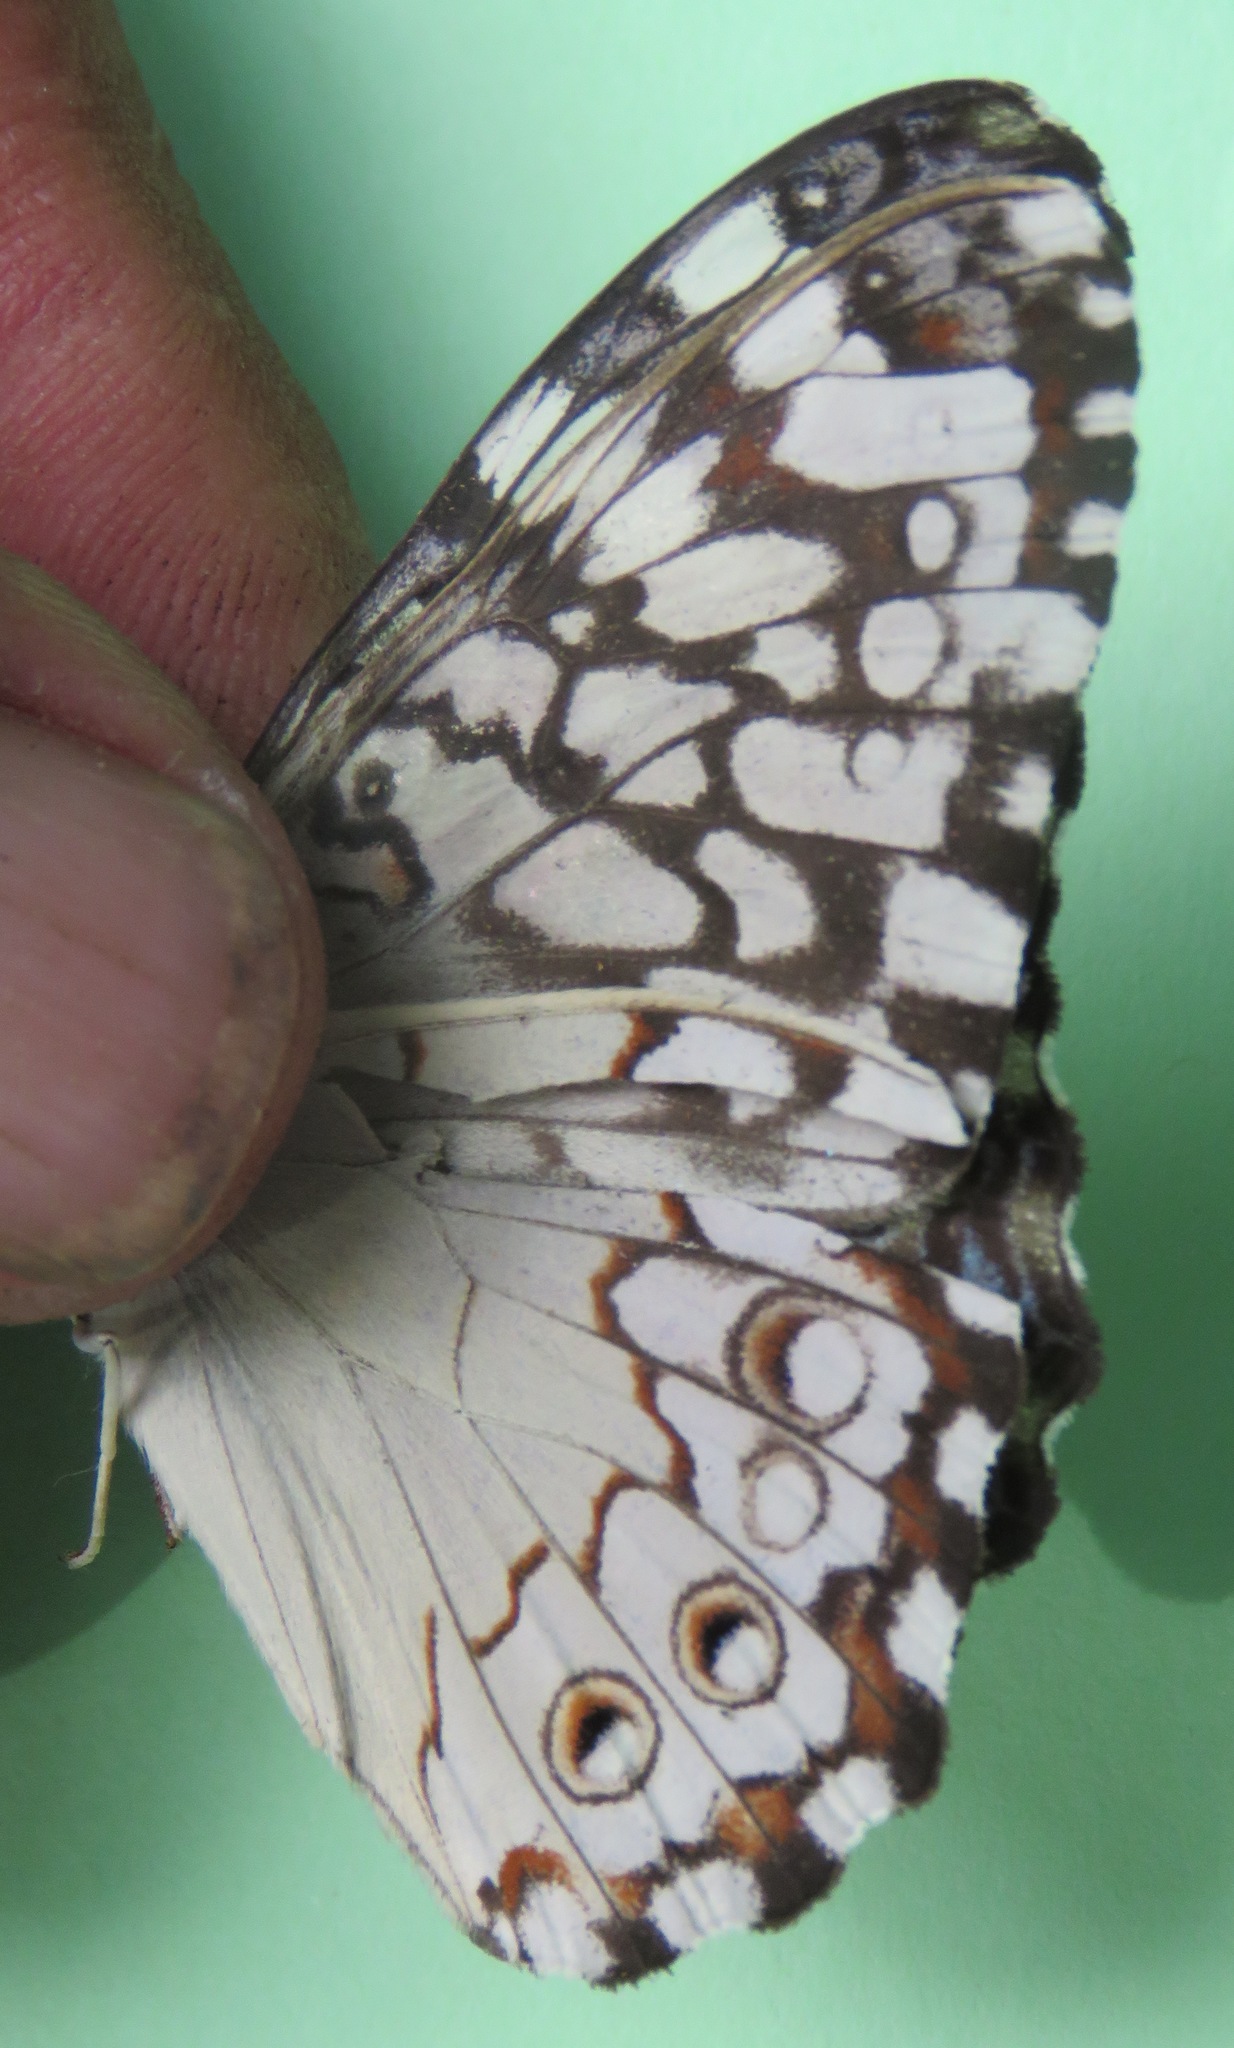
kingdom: Animalia
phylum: Arthropoda
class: Insecta
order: Lepidoptera
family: Nymphalidae
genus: Hamadryas
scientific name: Hamadryas februa
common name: Gray cracker
